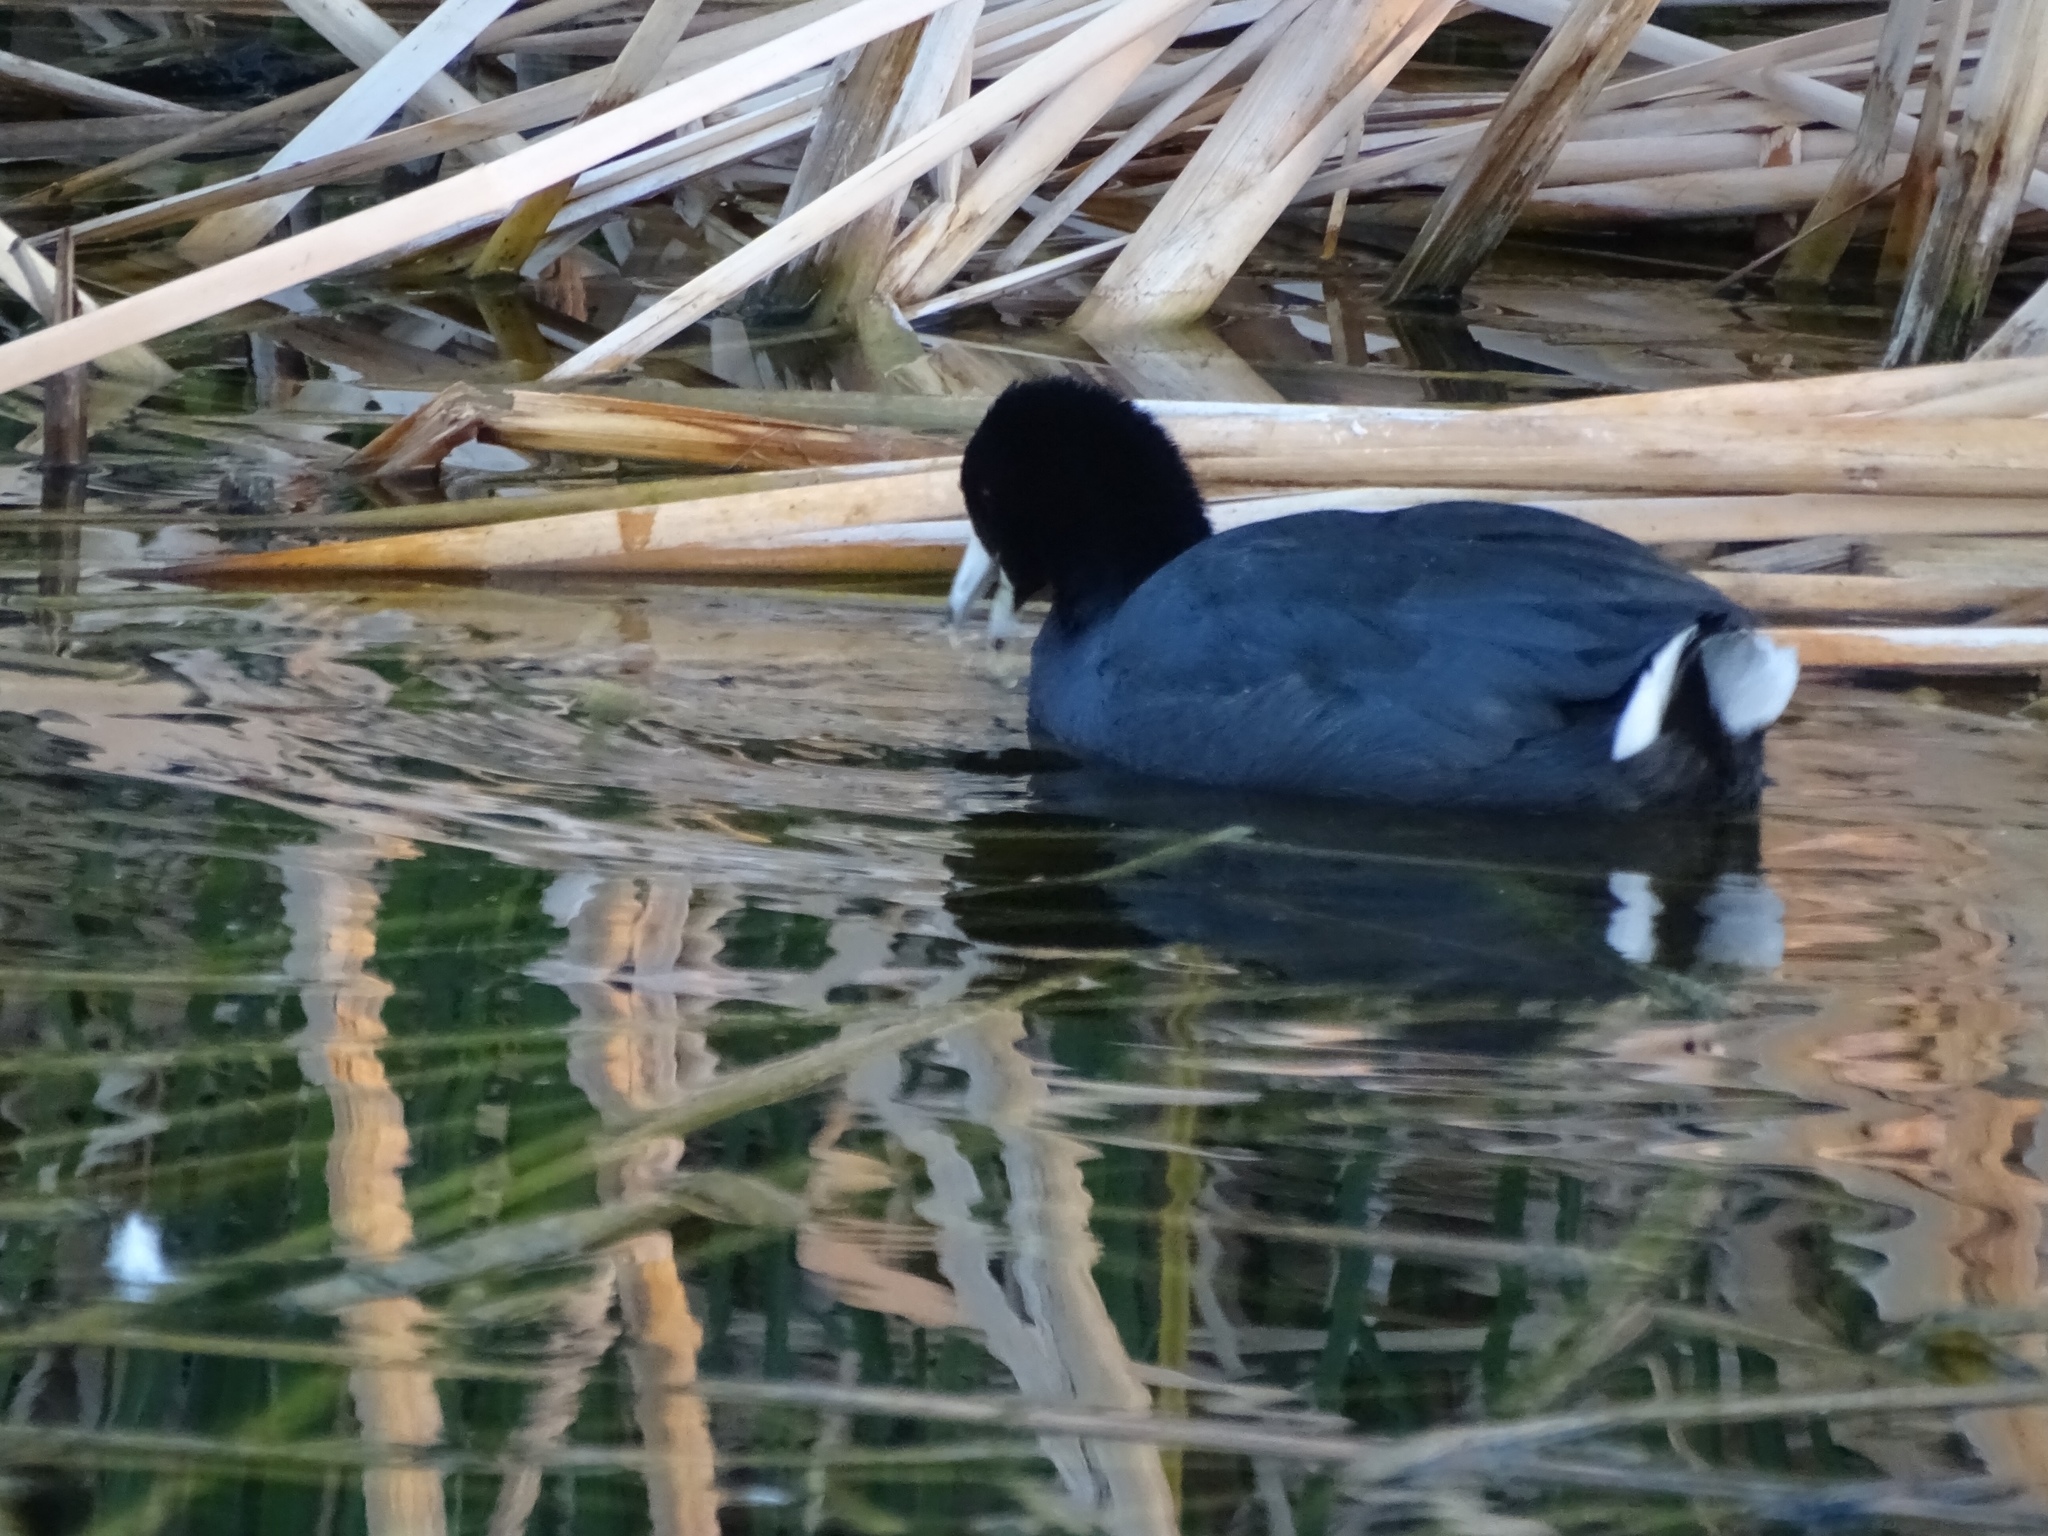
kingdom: Animalia
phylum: Chordata
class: Aves
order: Gruiformes
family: Rallidae
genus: Fulica
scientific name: Fulica americana
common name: American coot
